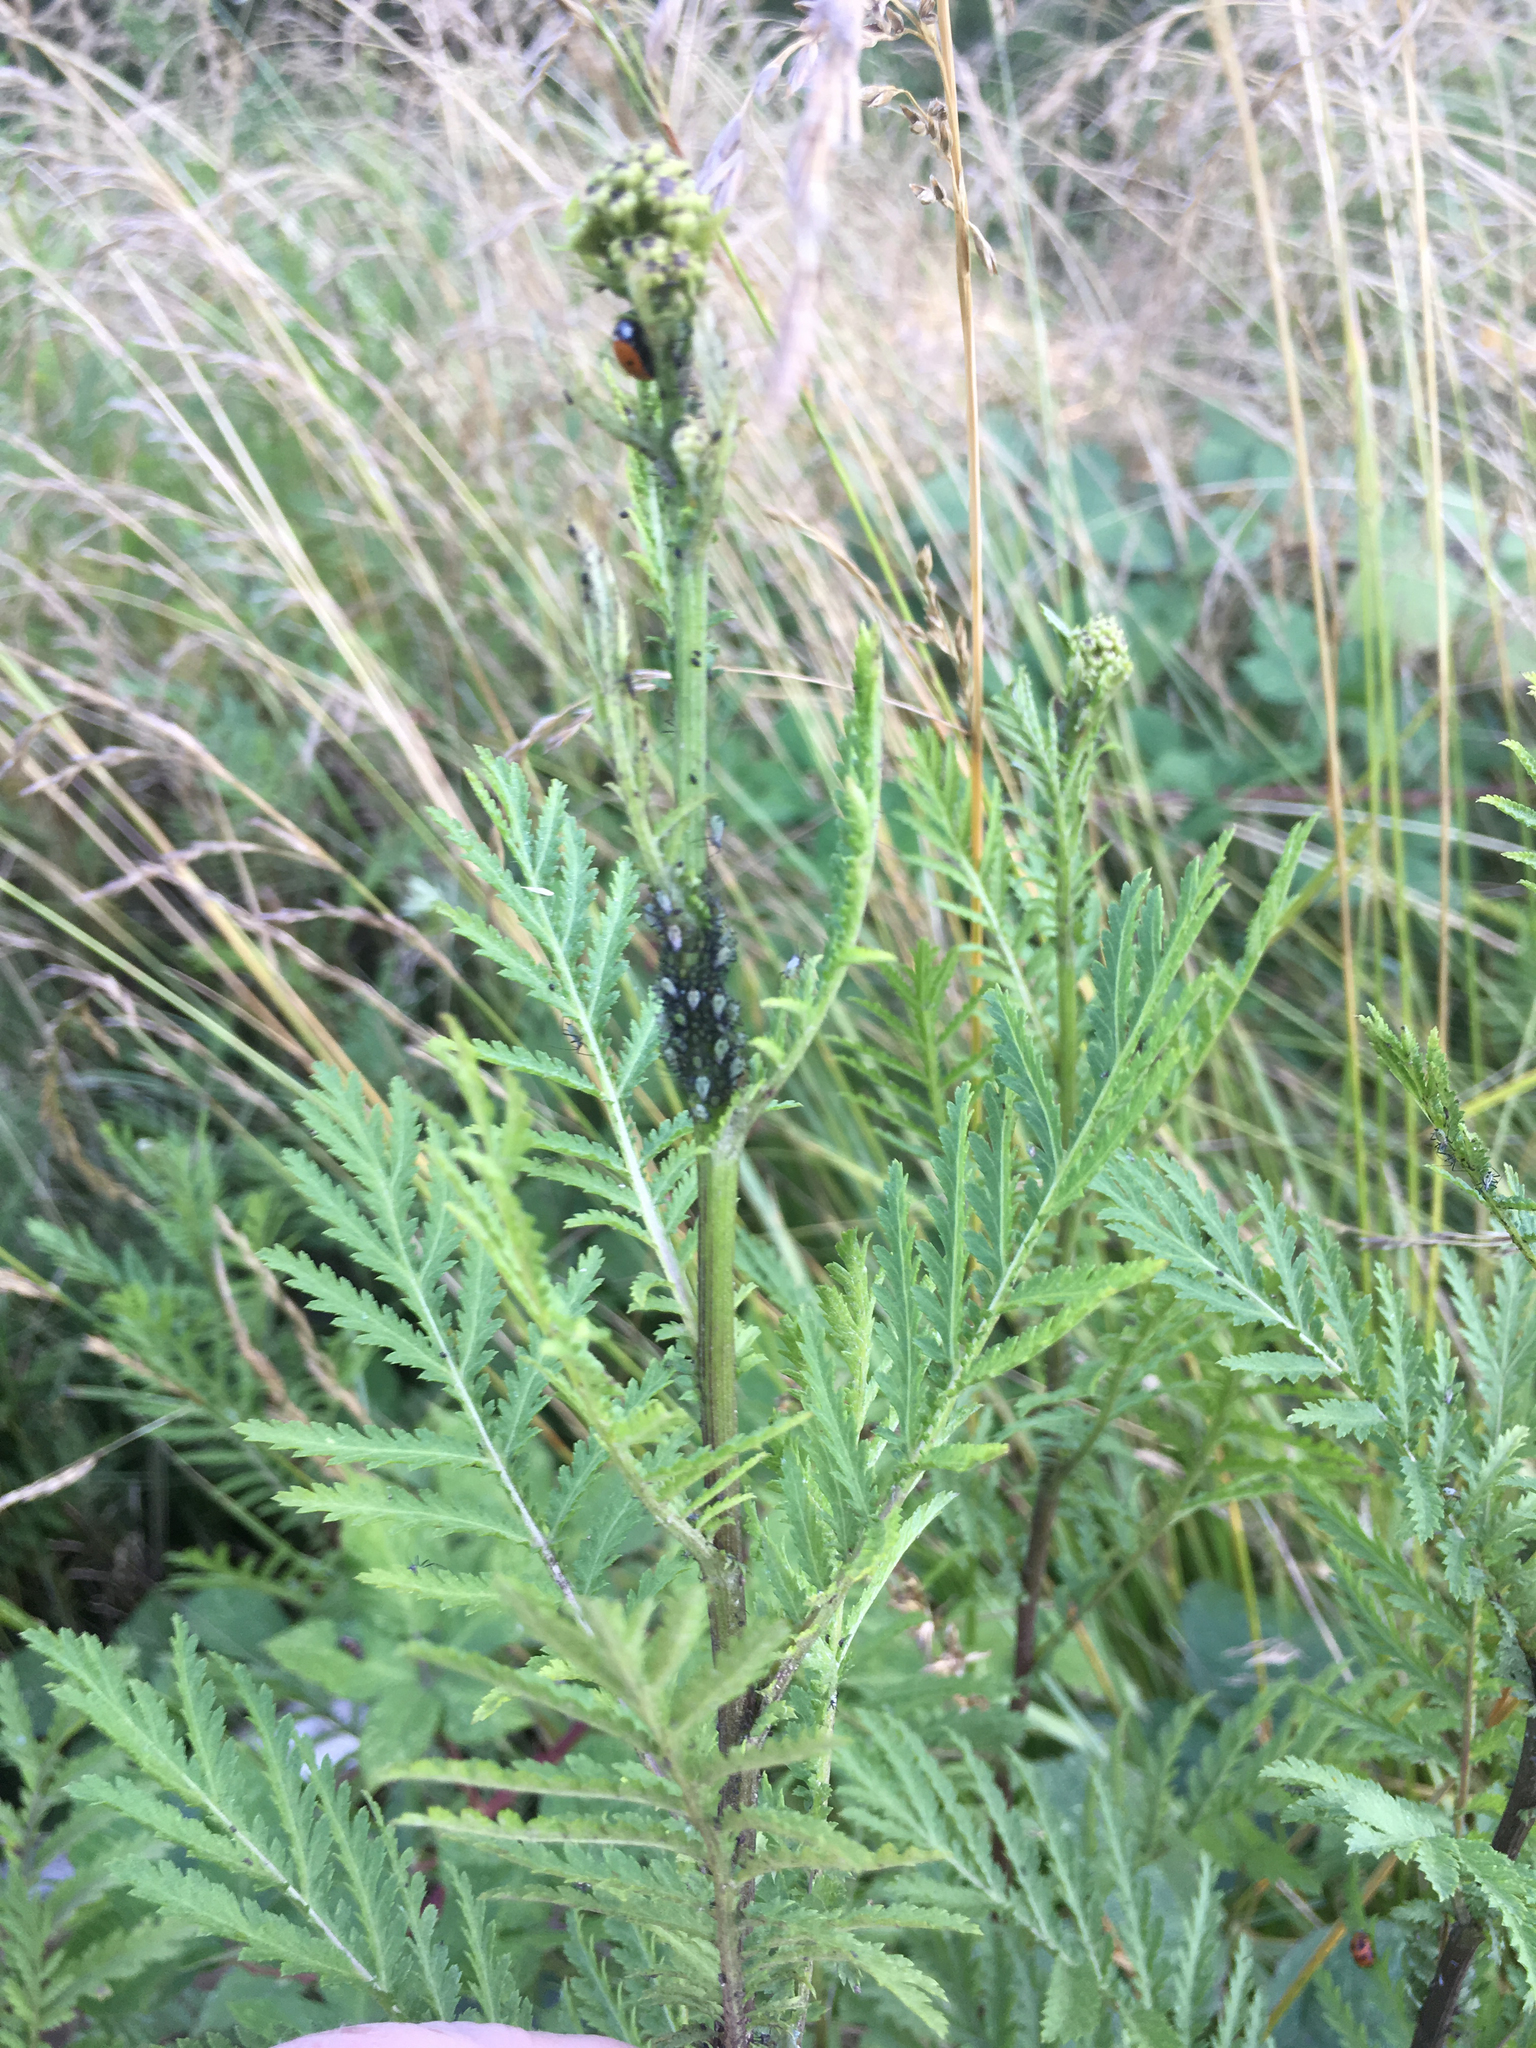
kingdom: Plantae
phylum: Tracheophyta
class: Magnoliopsida
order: Asterales
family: Asteraceae
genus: Tanacetum
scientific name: Tanacetum vulgare
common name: Common tansy
